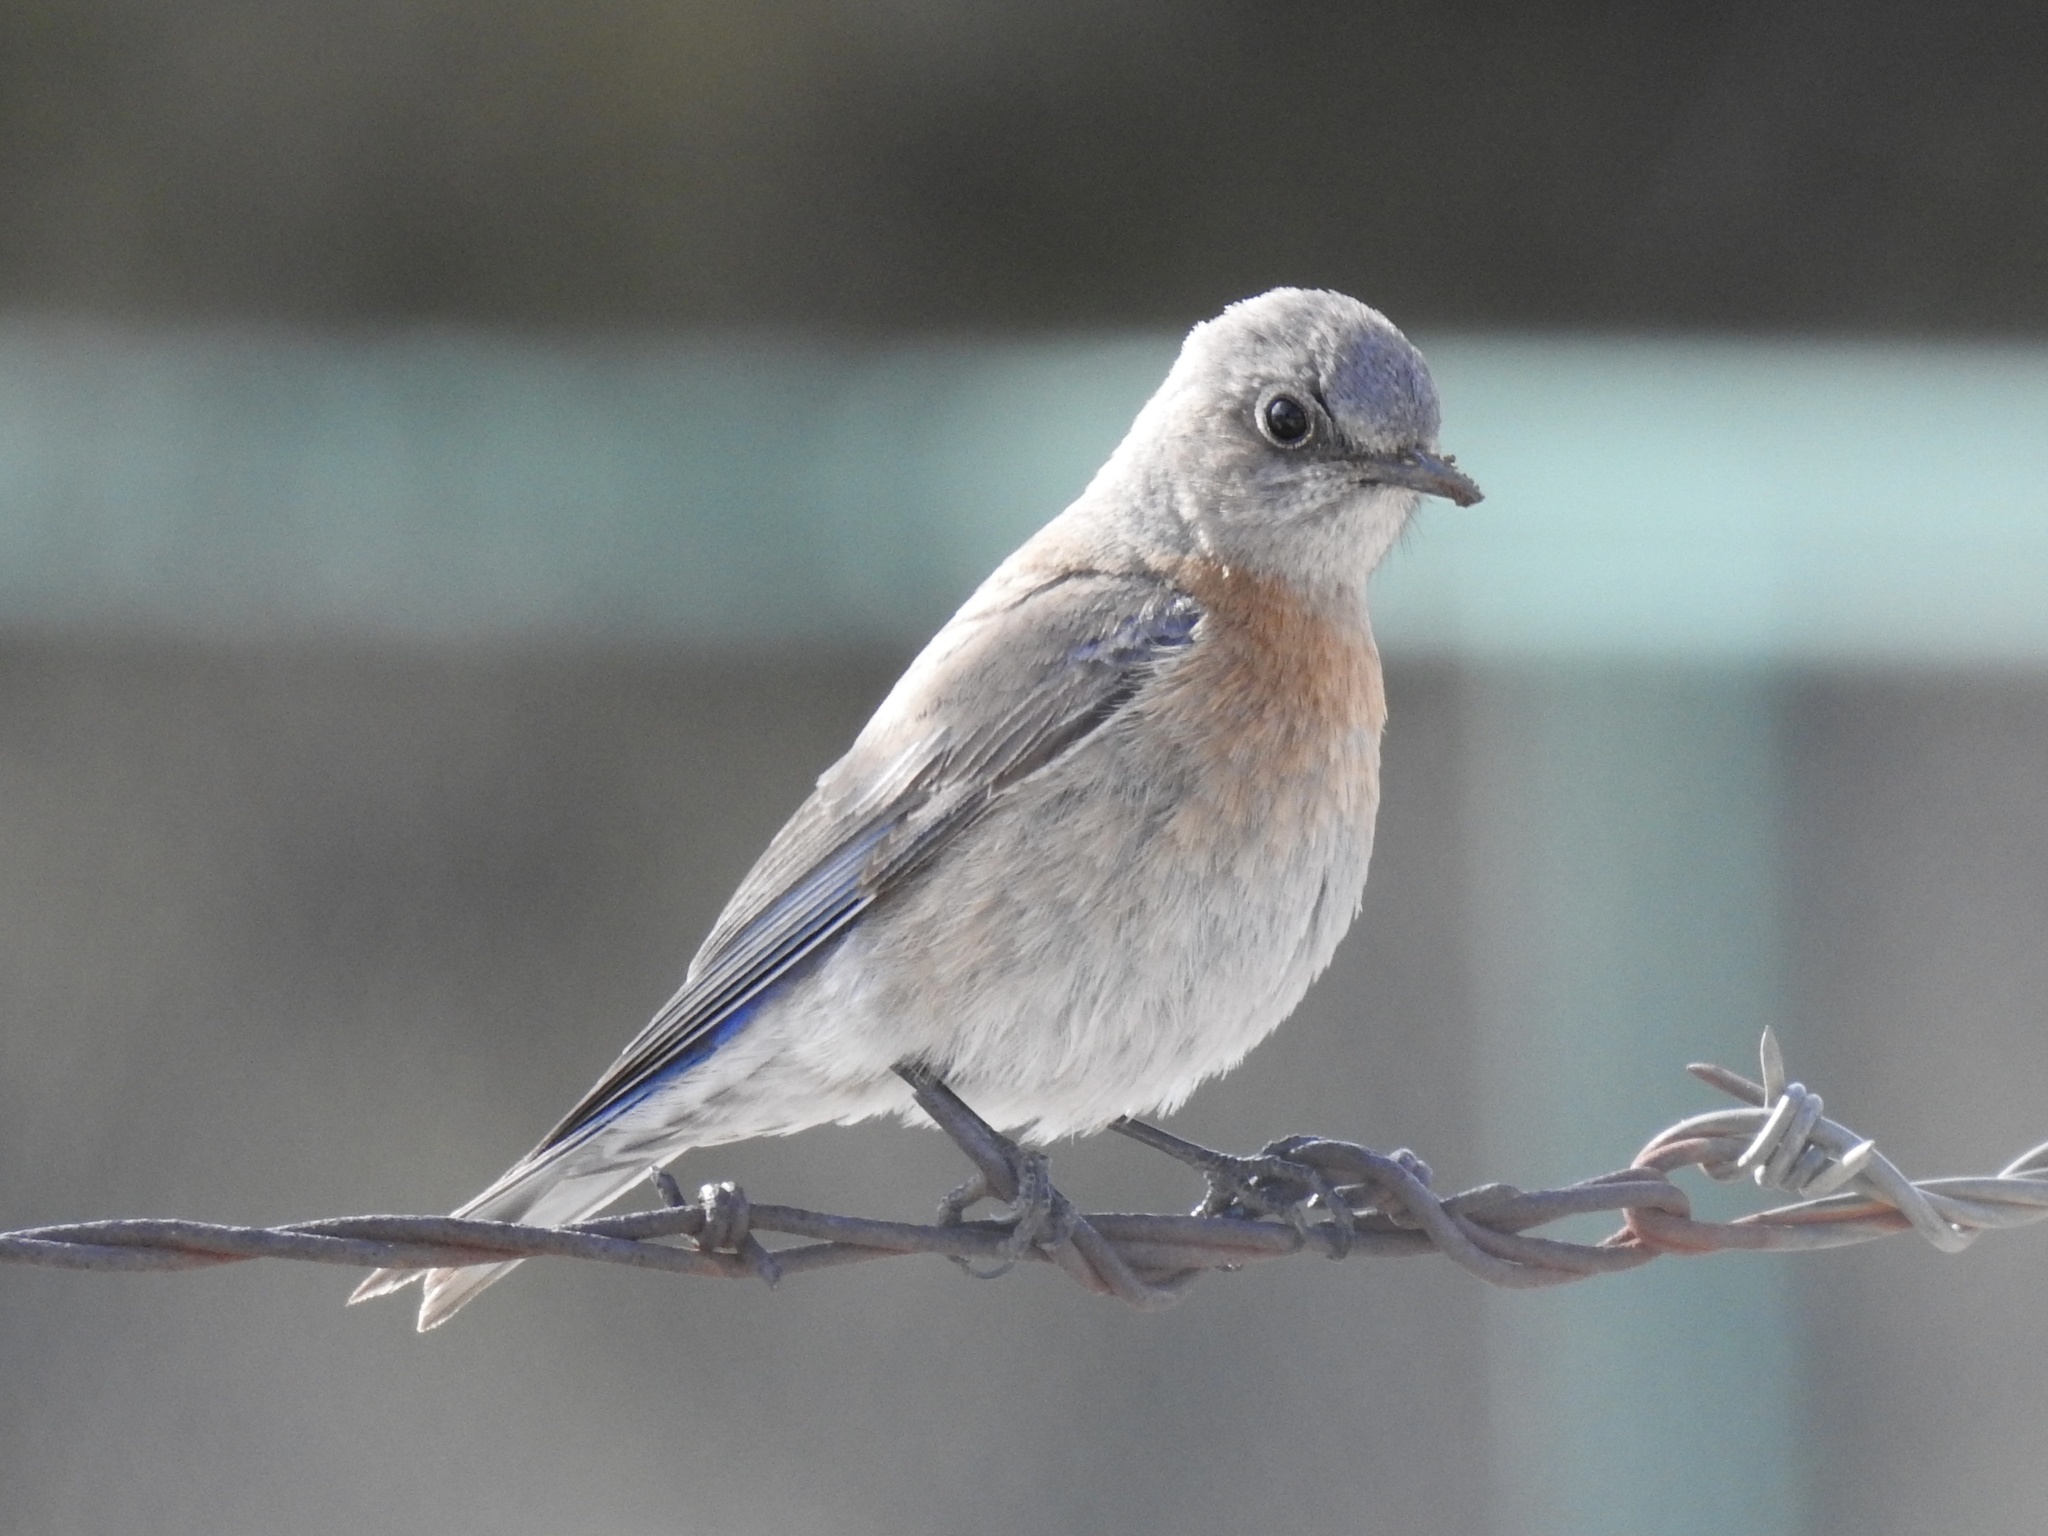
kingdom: Animalia
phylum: Chordata
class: Aves
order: Passeriformes
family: Turdidae
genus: Sialia
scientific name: Sialia mexicana
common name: Western bluebird
